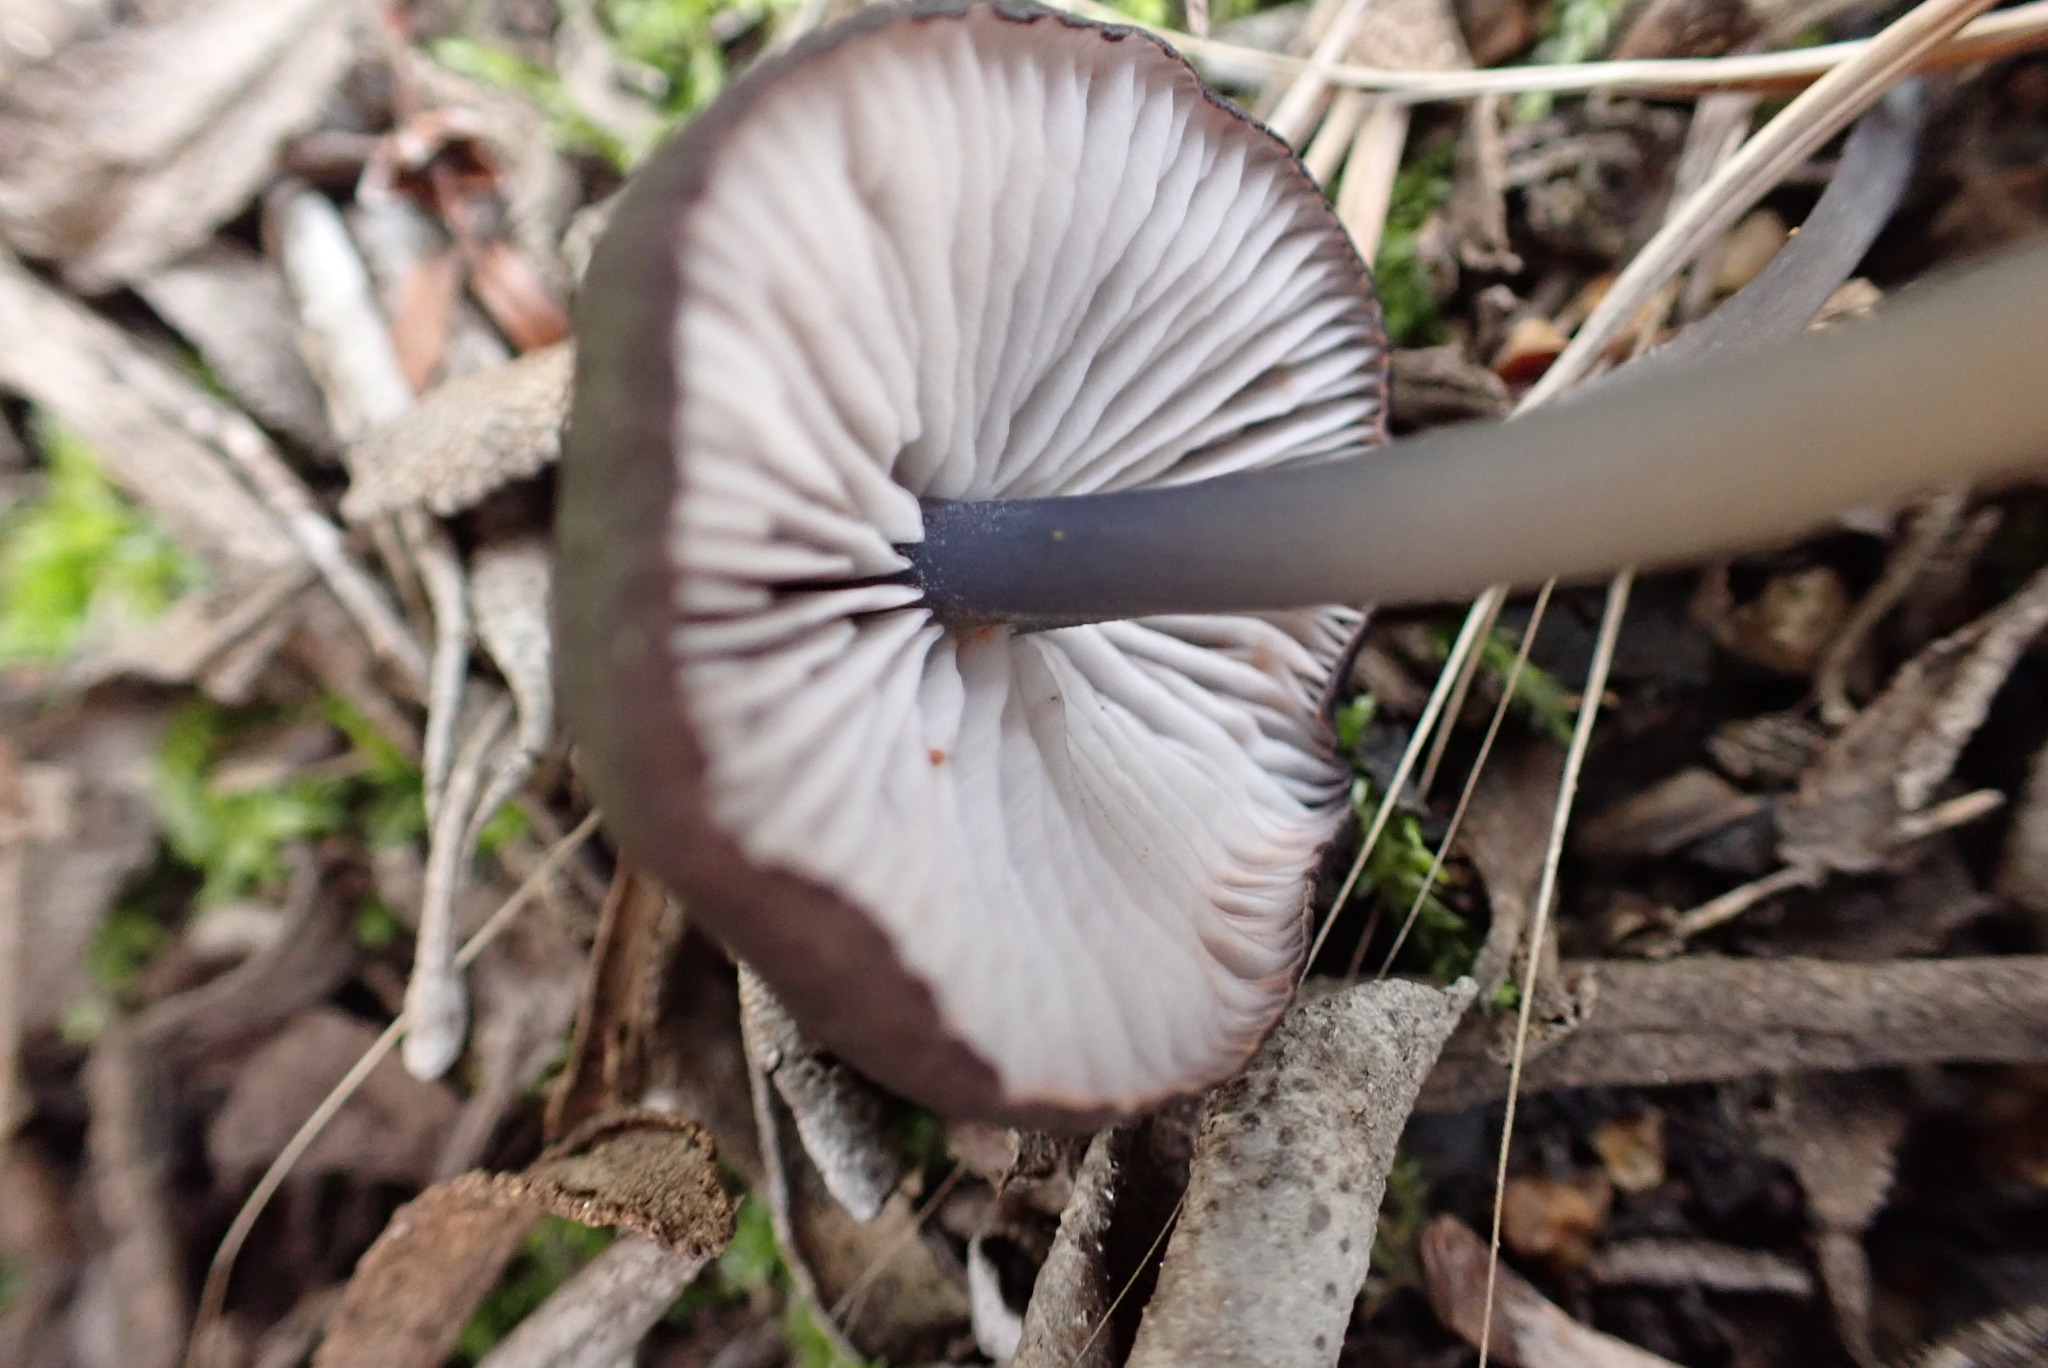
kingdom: Fungi
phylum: Basidiomycota
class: Agaricomycetes
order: Agaricales
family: Entolomataceae
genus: Entoloma
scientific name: Entoloma serrulatum
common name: Blue edge pinkgill
